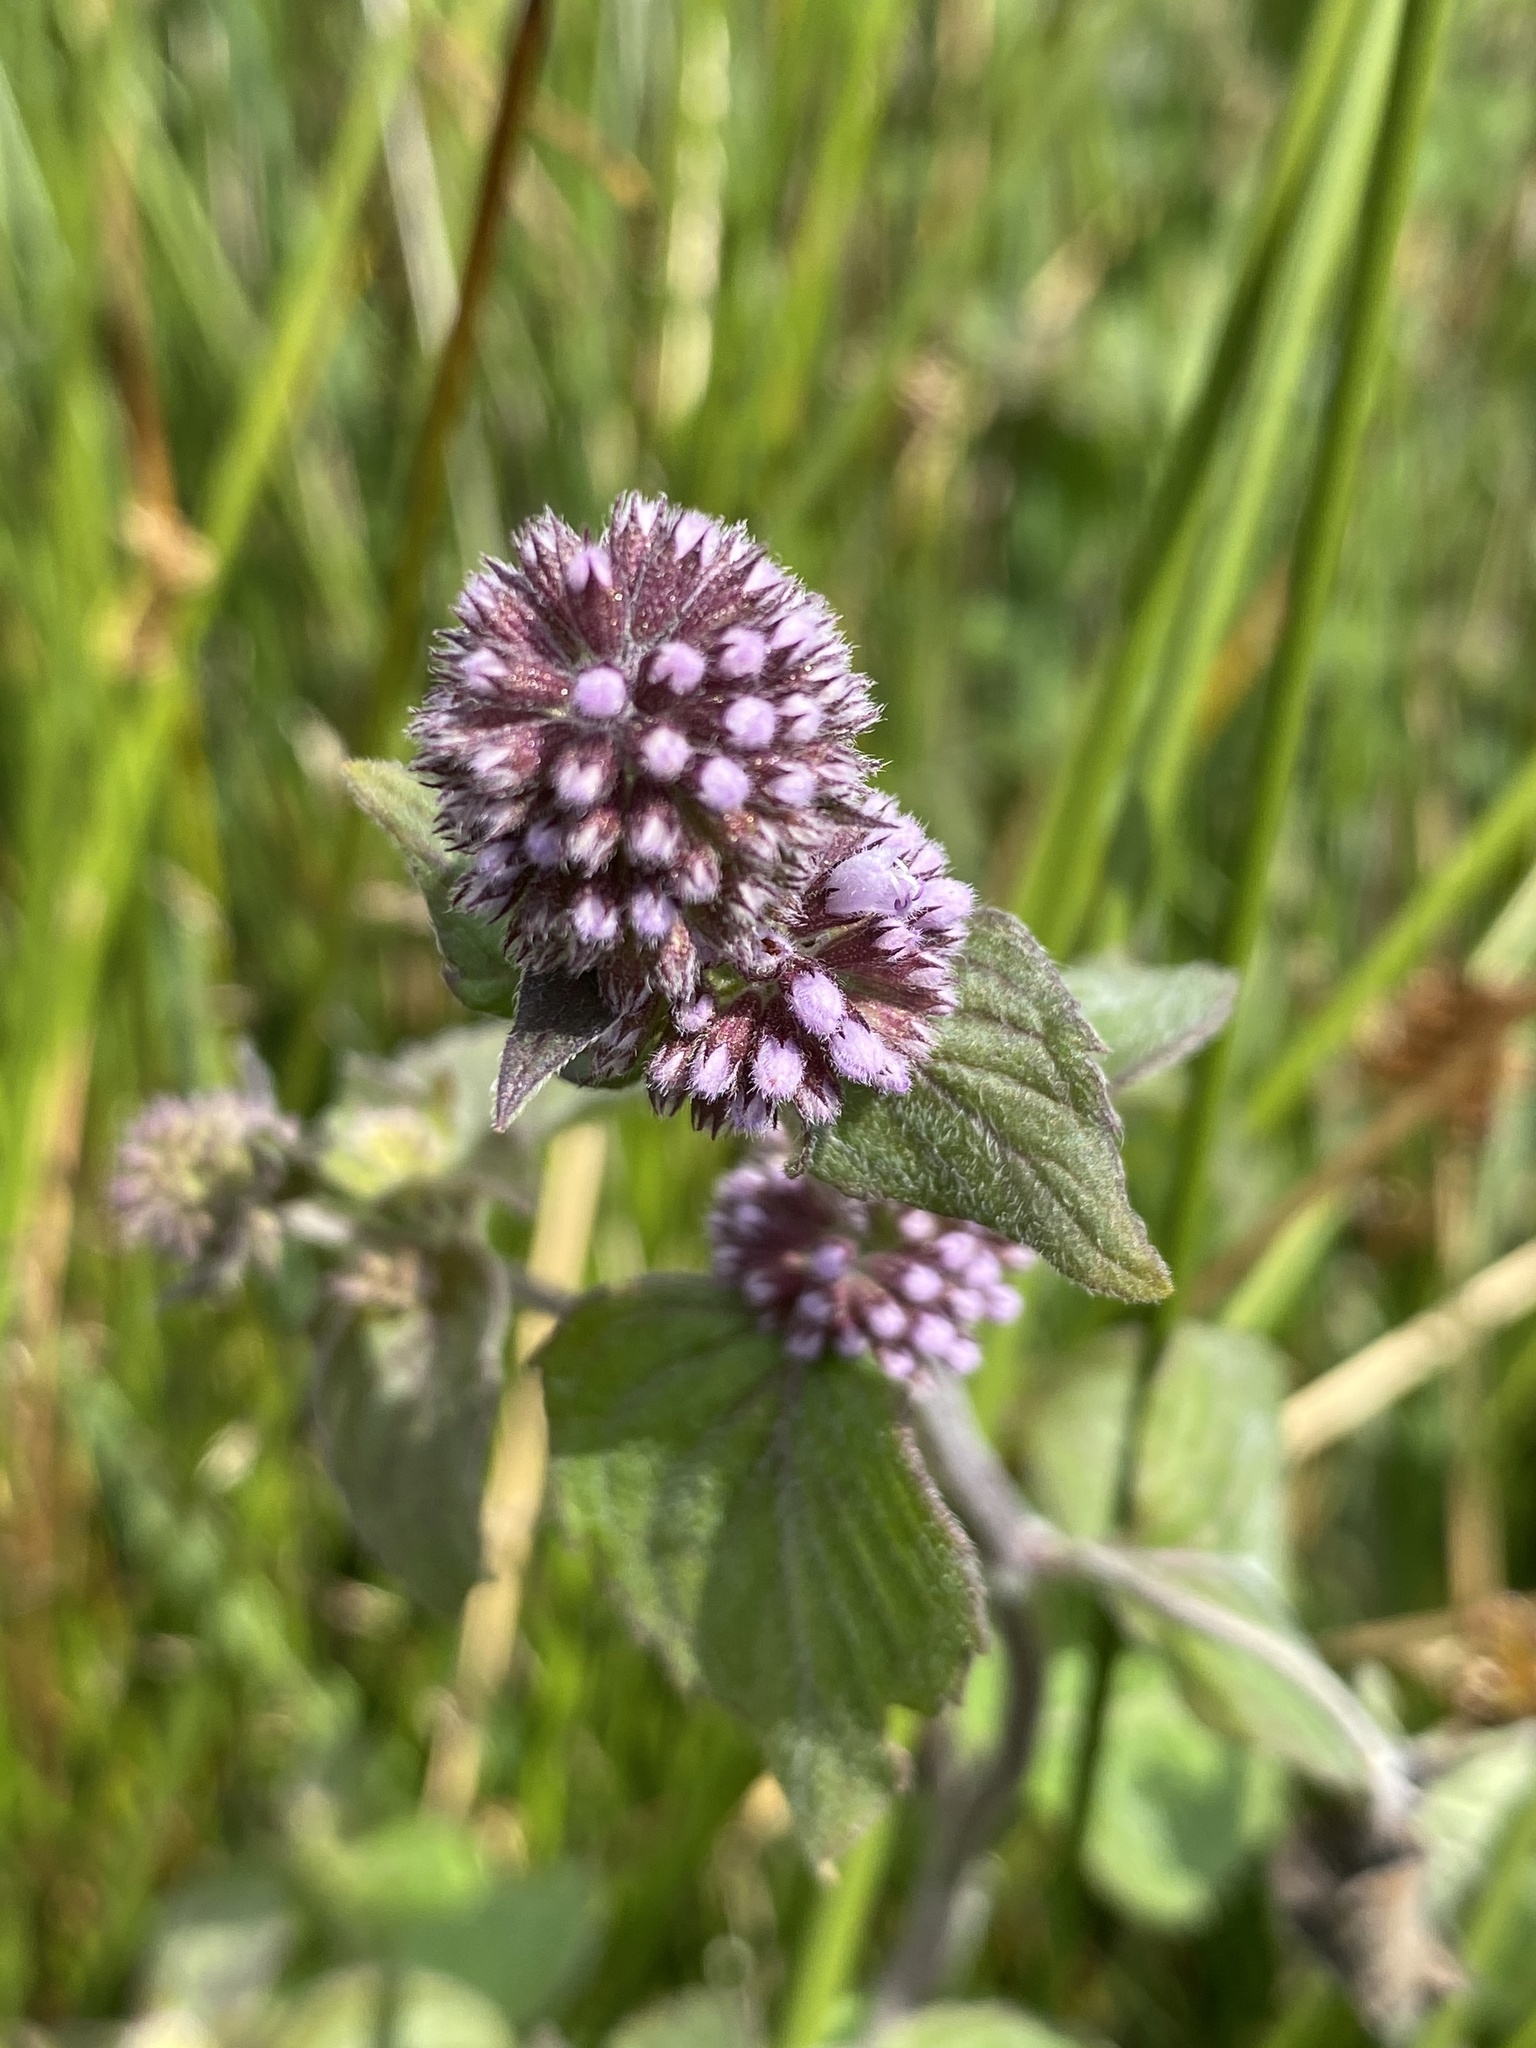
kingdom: Plantae
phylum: Tracheophyta
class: Magnoliopsida
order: Lamiales
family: Lamiaceae
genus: Mentha
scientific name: Mentha aquatica
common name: Water mint
